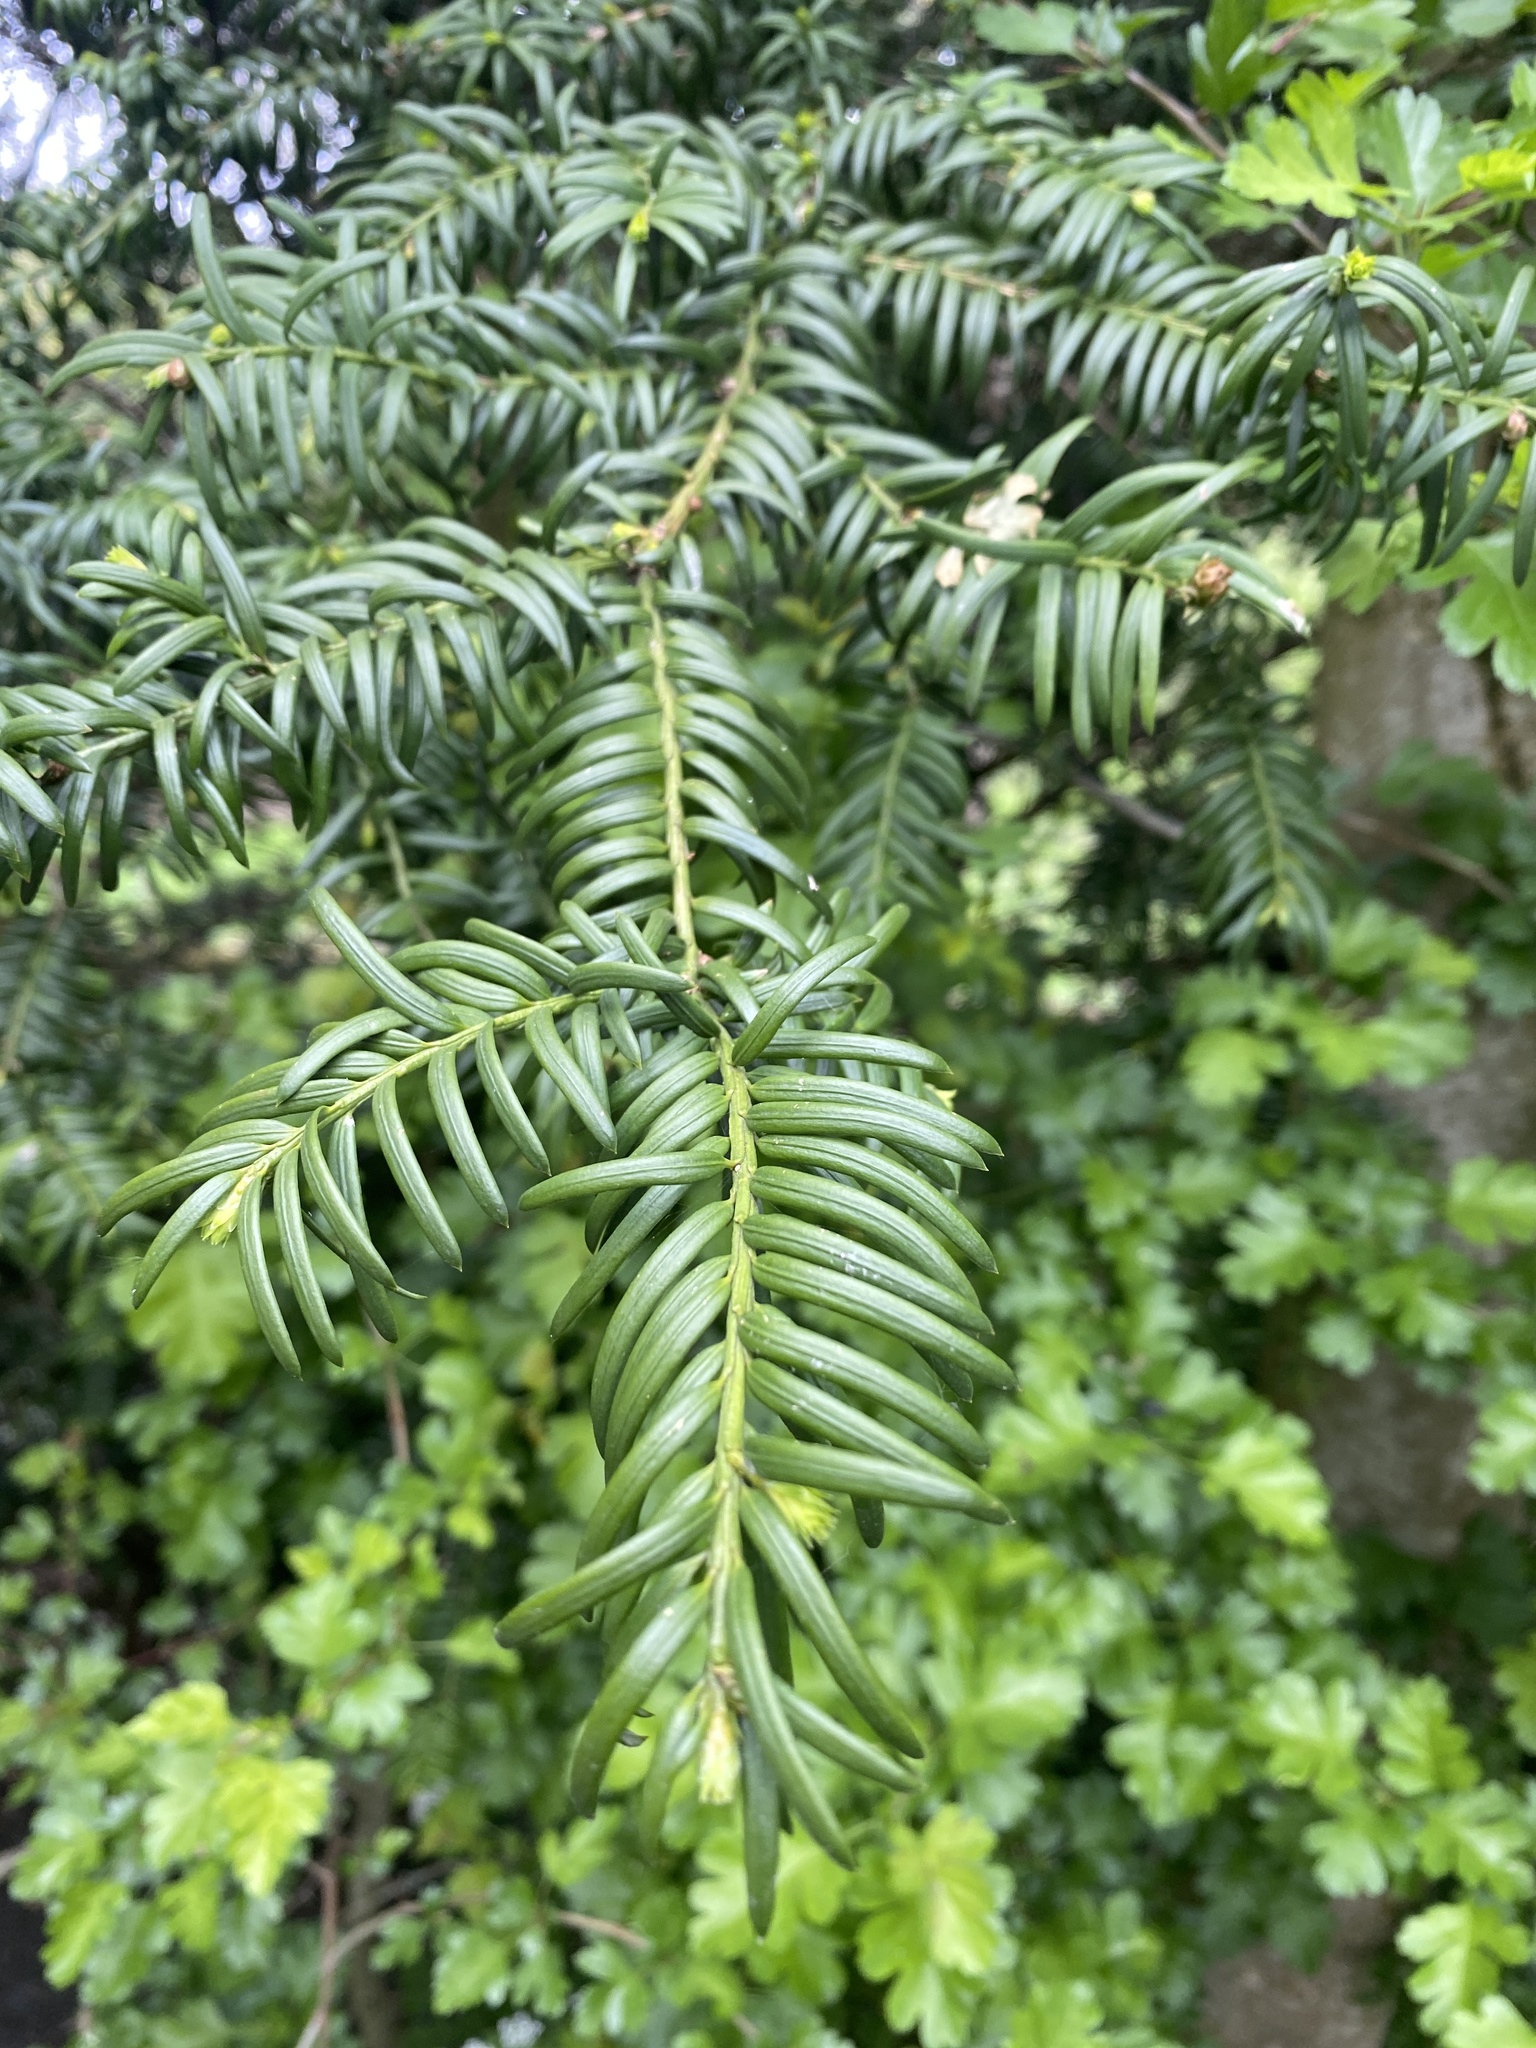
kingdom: Plantae
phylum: Tracheophyta
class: Pinopsida
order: Pinales
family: Taxaceae
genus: Taxus
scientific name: Taxus baccata
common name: Yew
